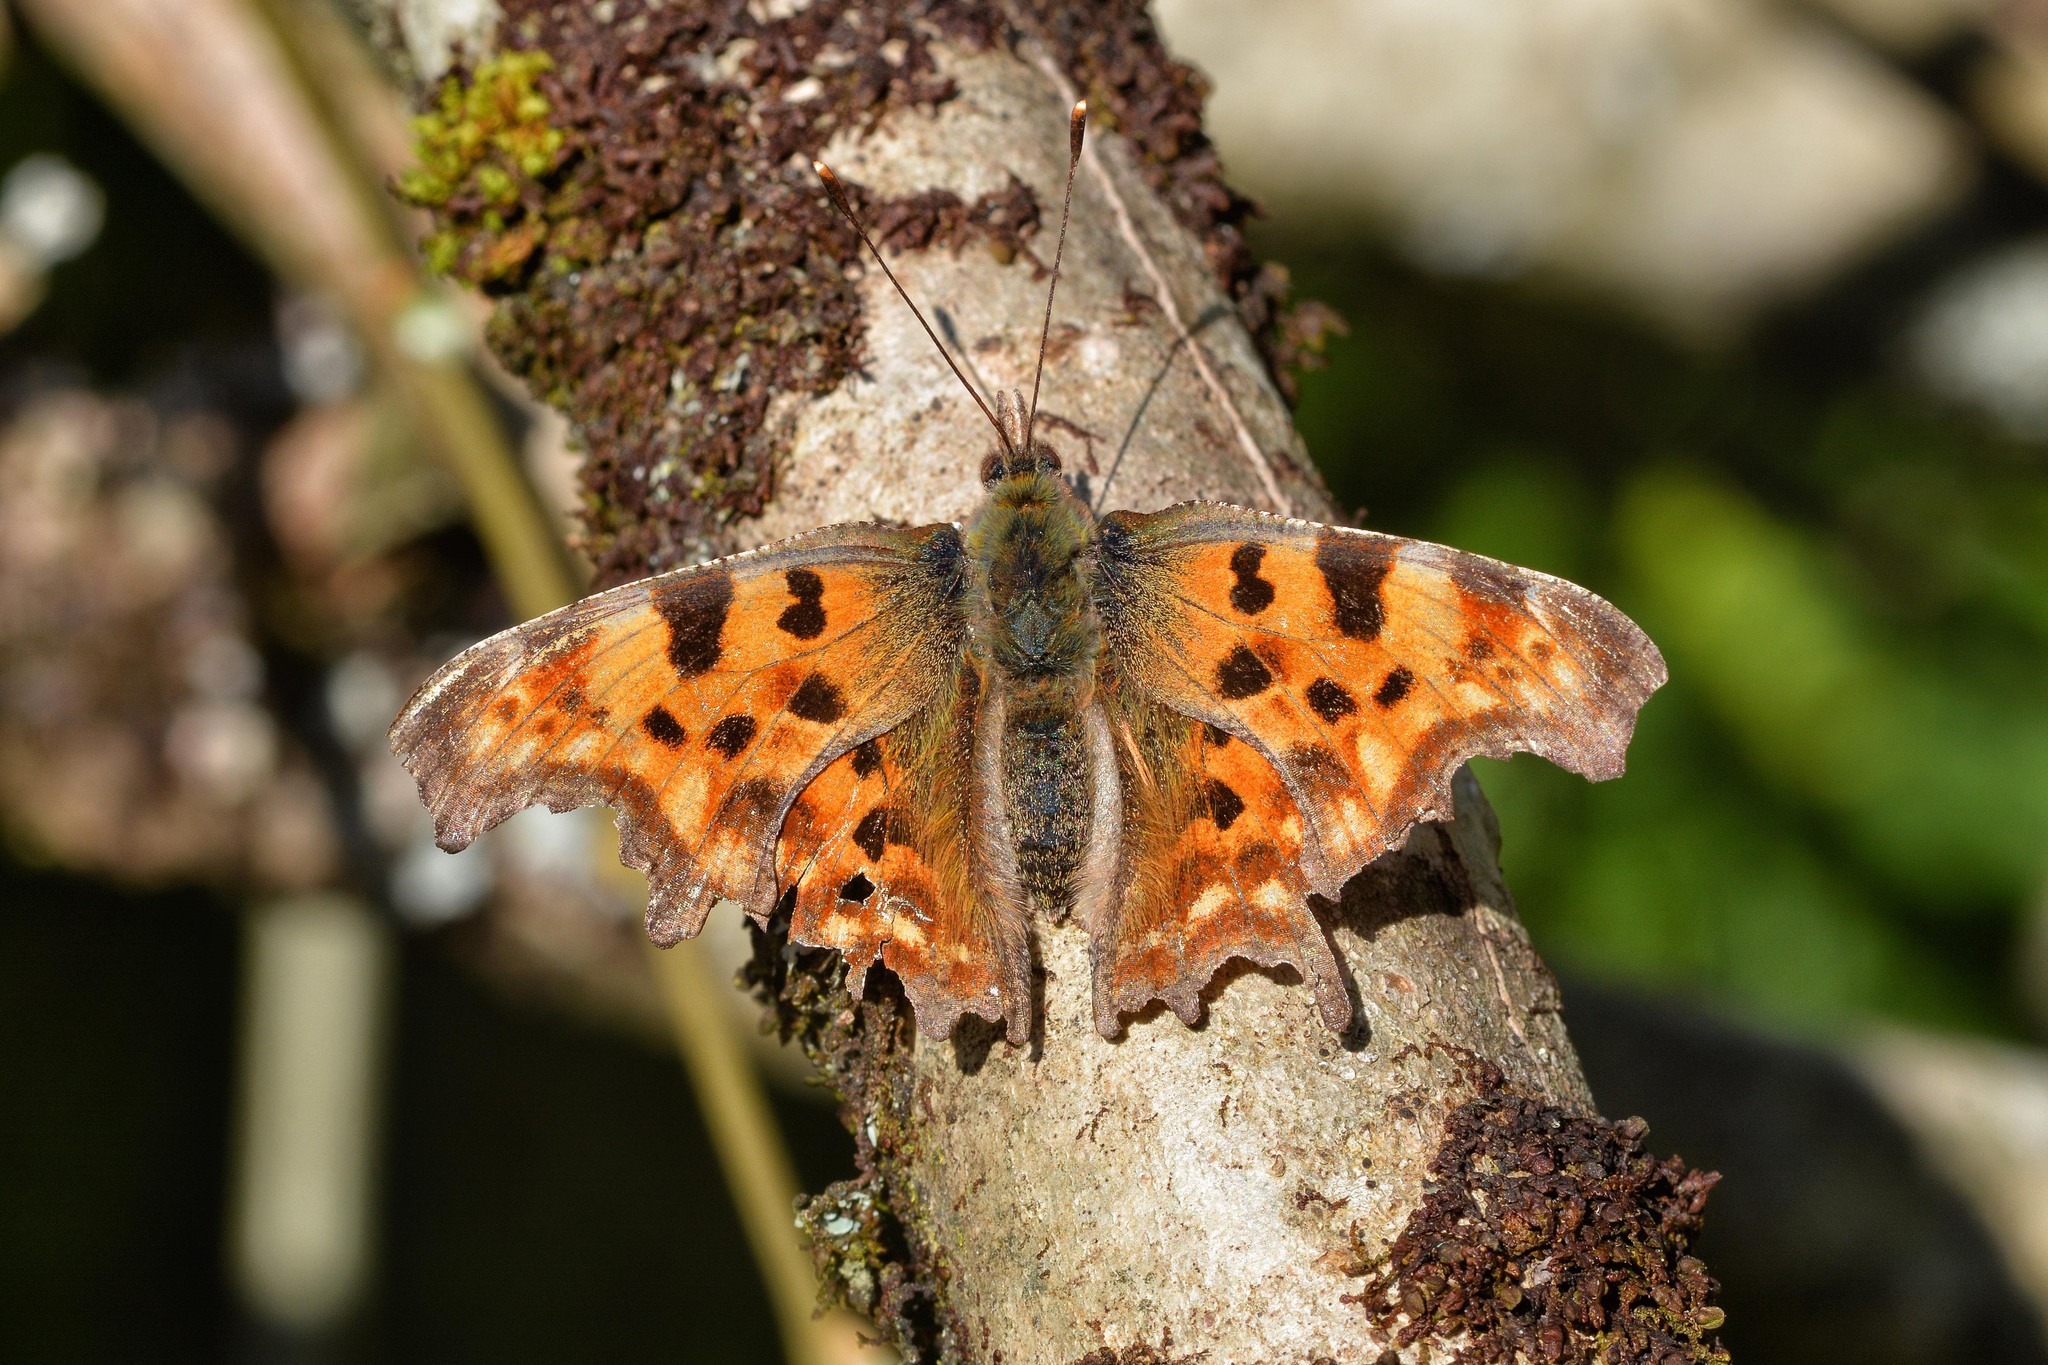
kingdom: Animalia
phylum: Arthropoda
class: Insecta
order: Lepidoptera
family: Nymphalidae
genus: Polygonia
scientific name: Polygonia c-album
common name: Comma
